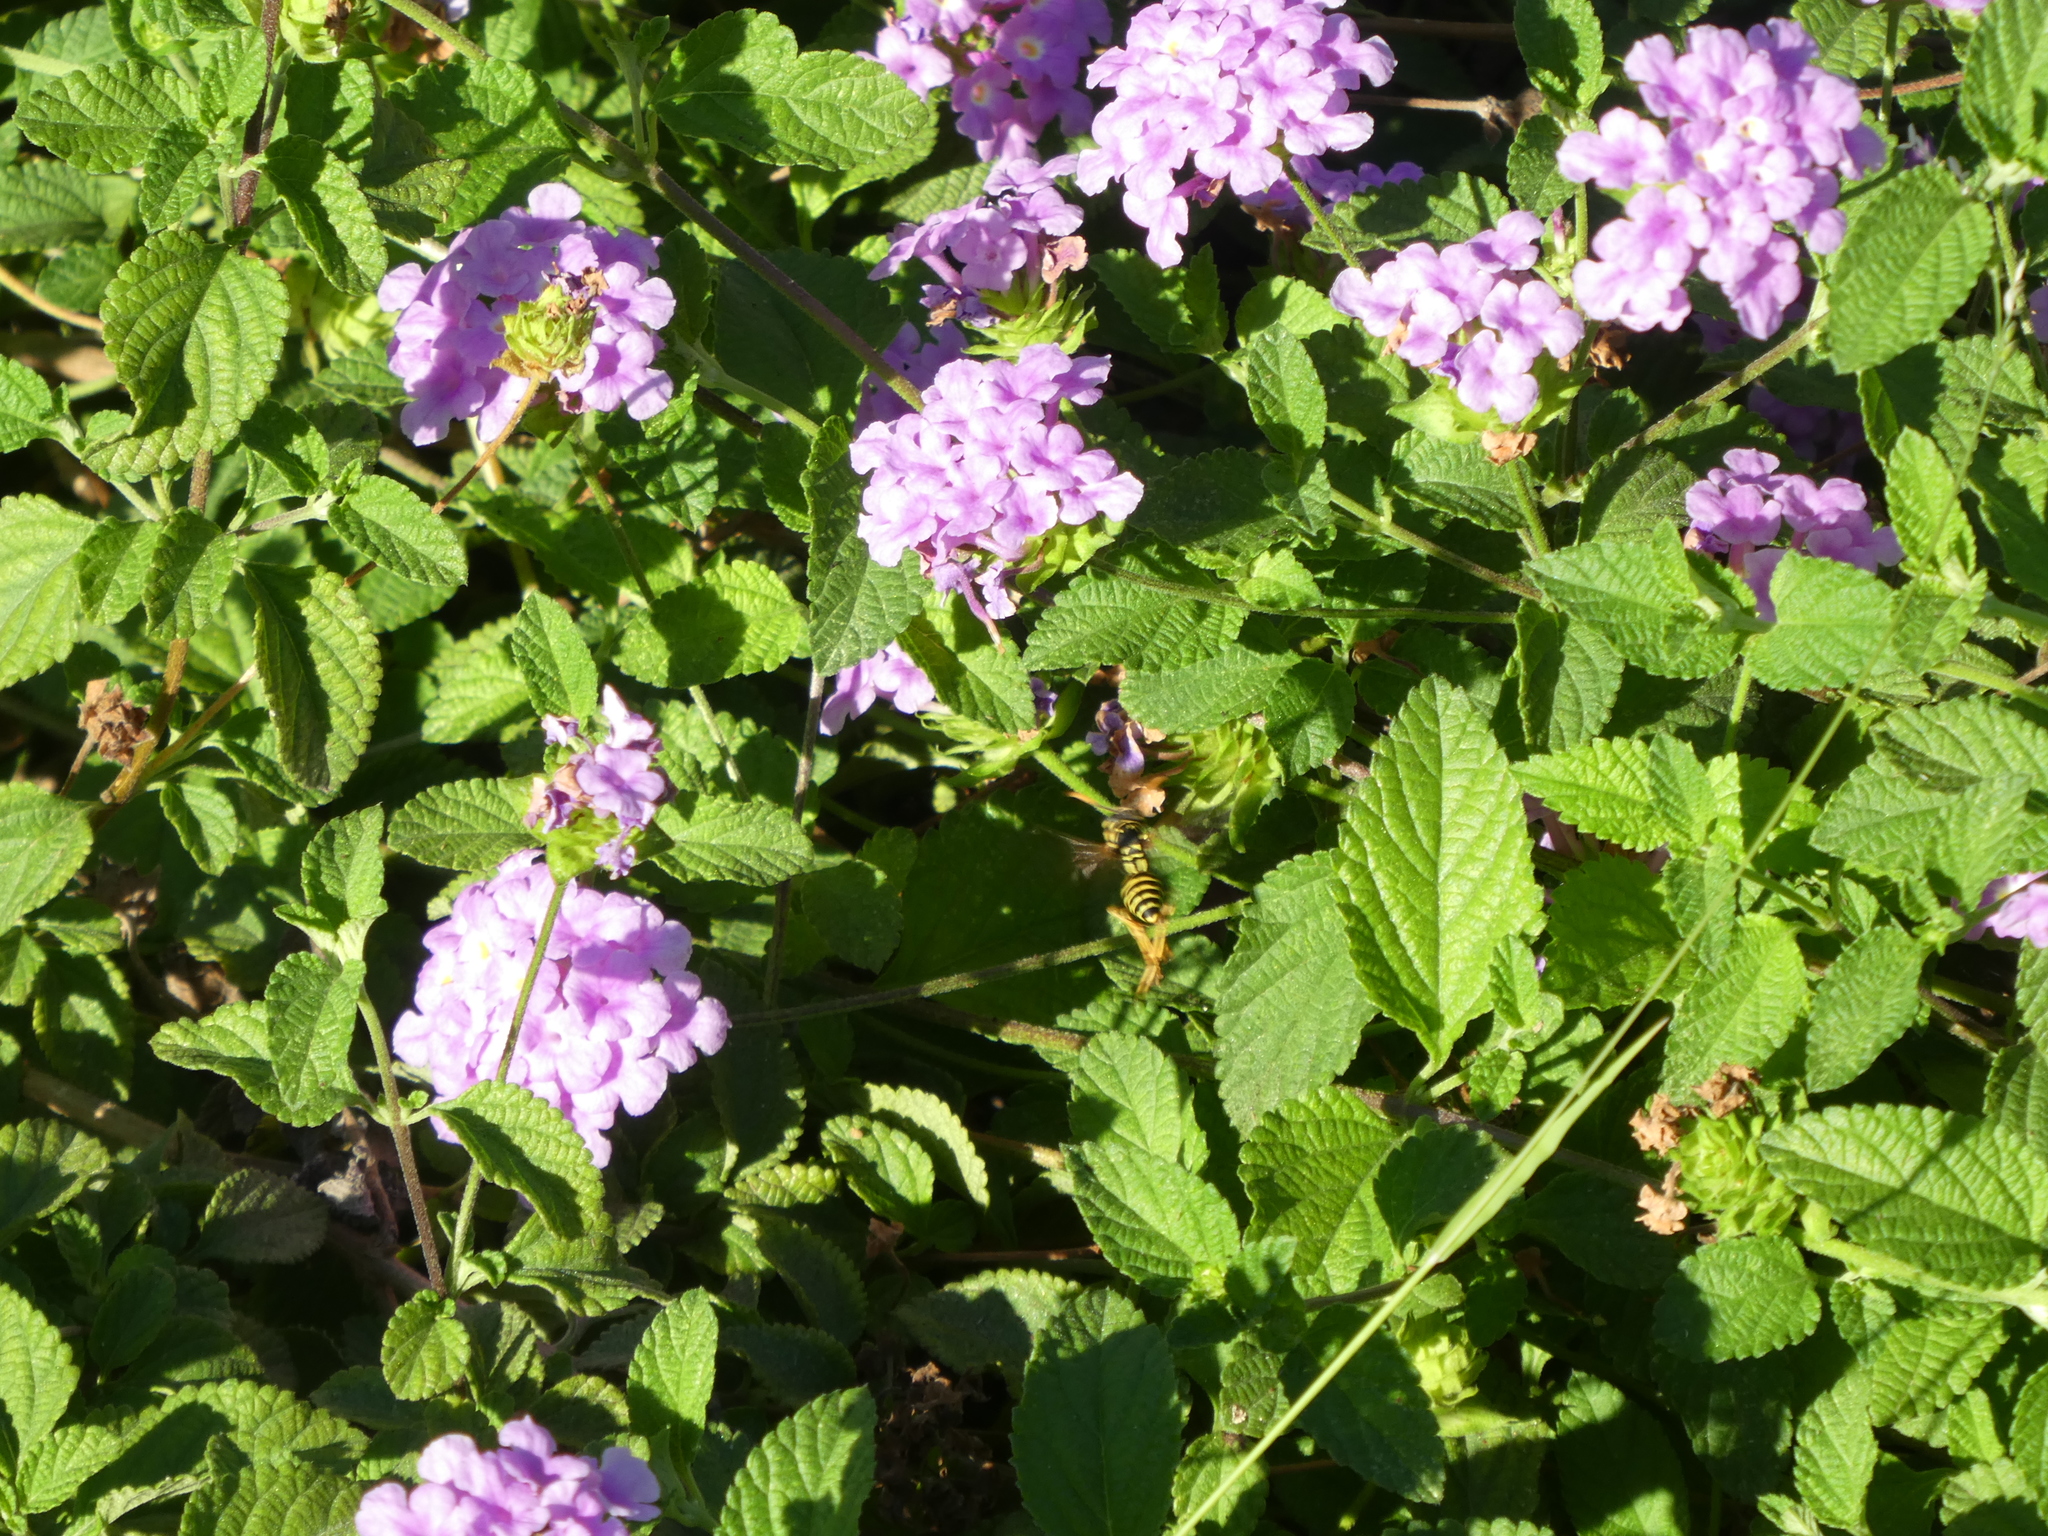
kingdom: Animalia
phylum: Arthropoda
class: Insecta
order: Hymenoptera
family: Eumenidae
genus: Polistes
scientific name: Polistes dominula
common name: Paper wasp
